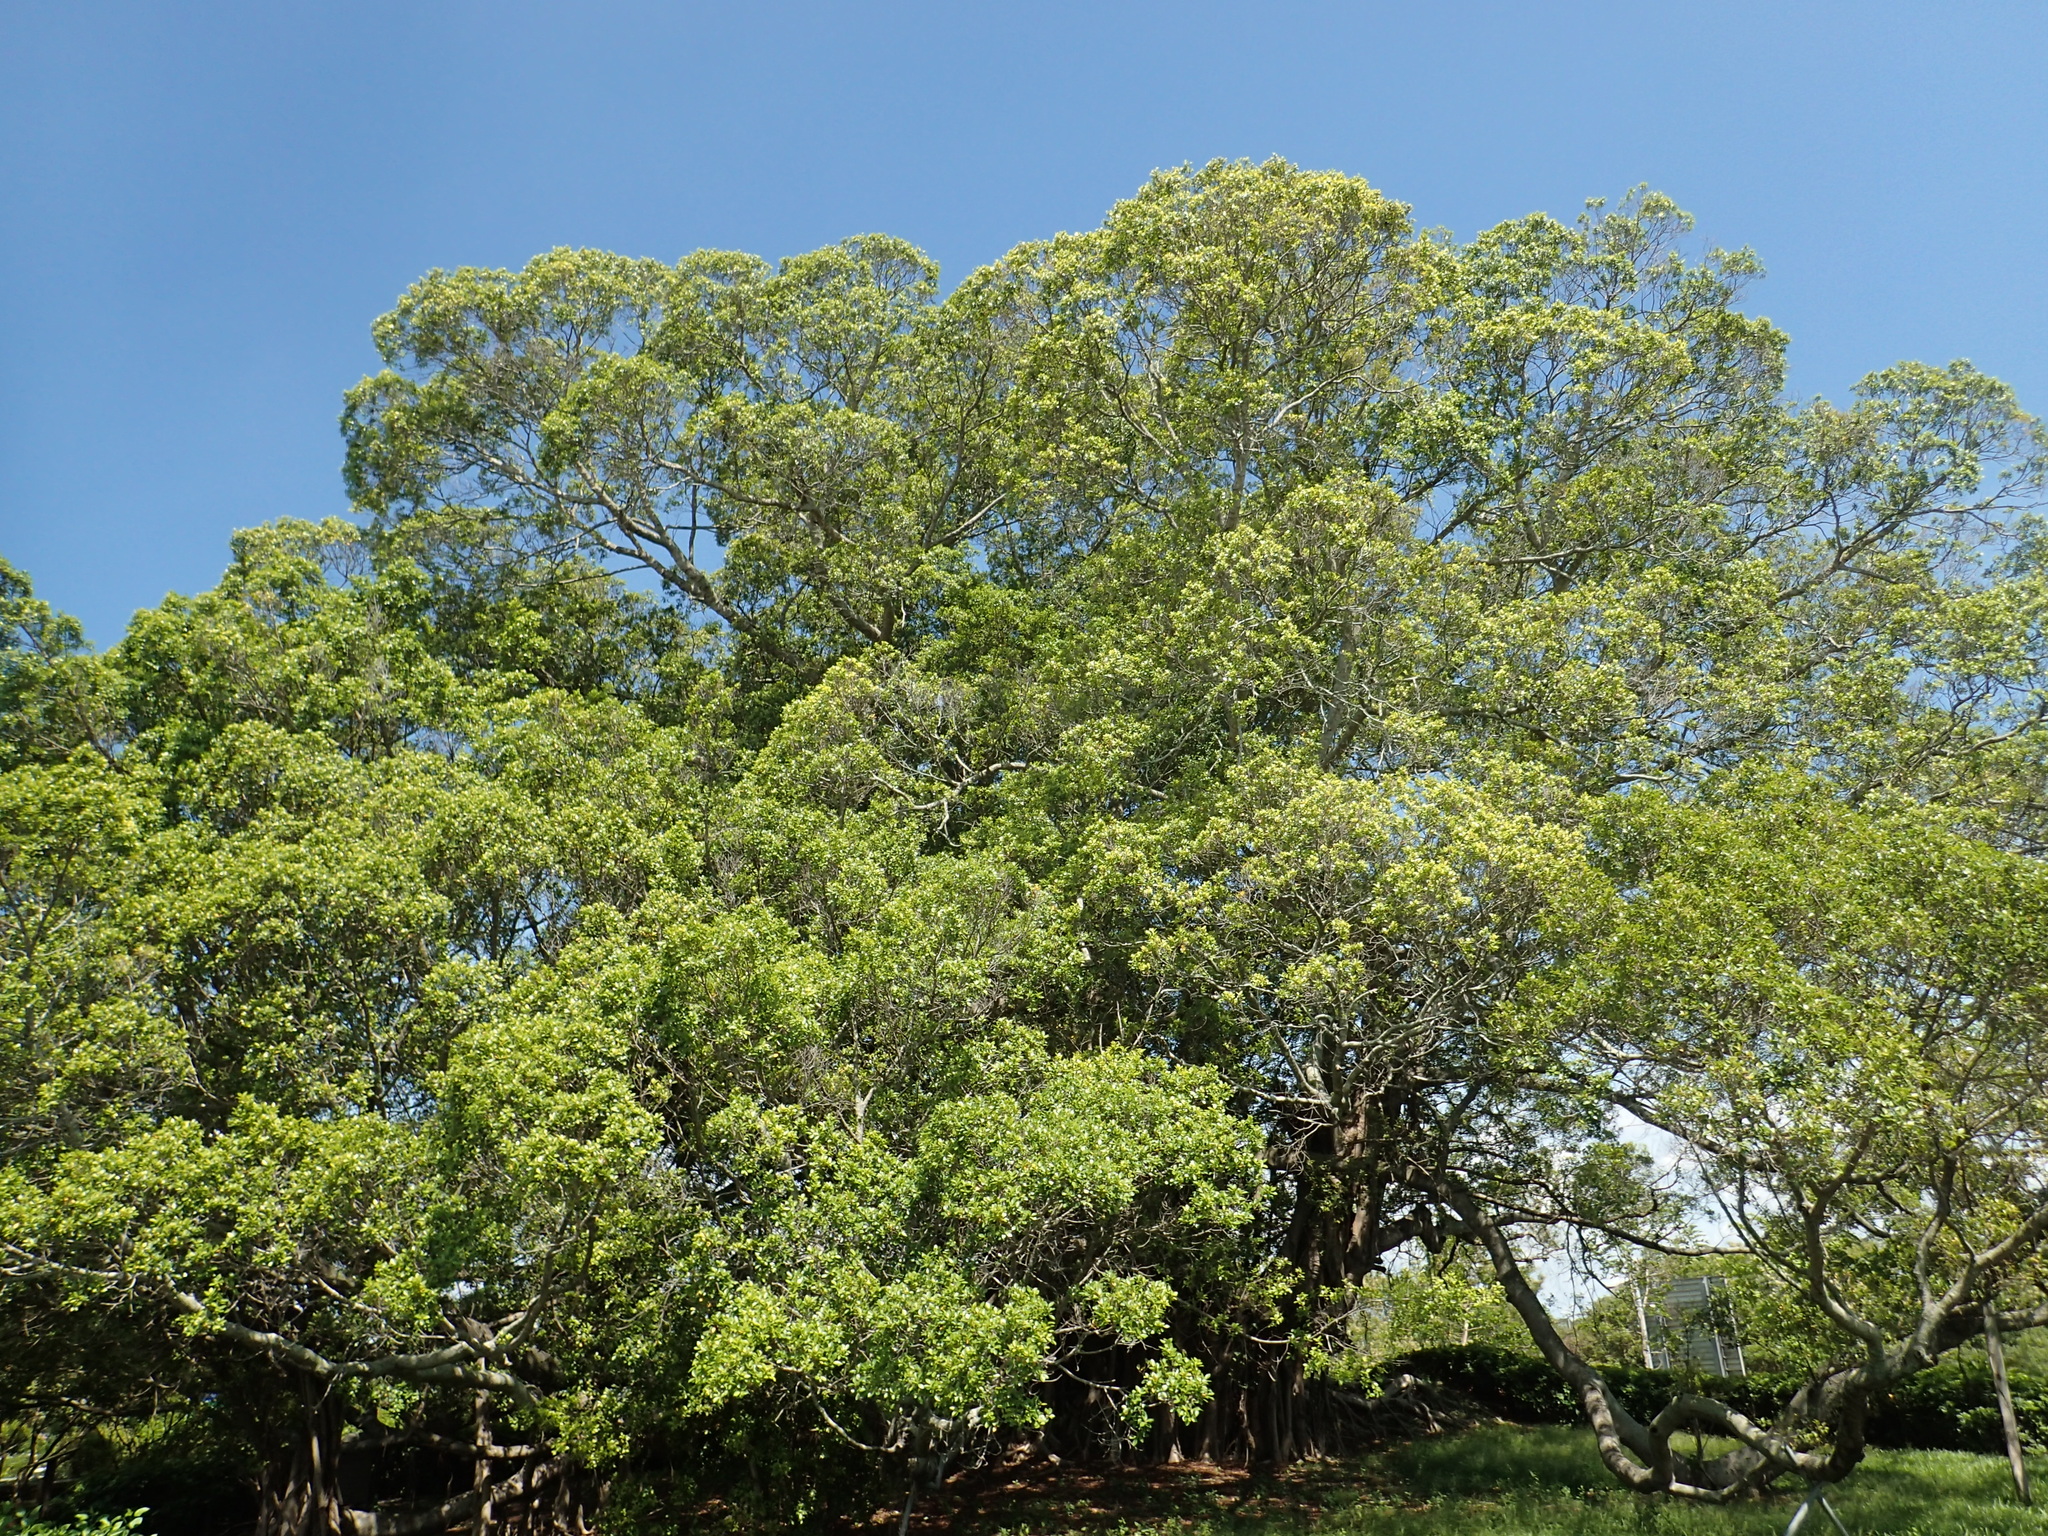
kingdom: Plantae
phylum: Tracheophyta
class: Magnoliopsida
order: Rosales
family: Moraceae
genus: Ficus
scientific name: Ficus microcarpa
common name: Chinese banyan
